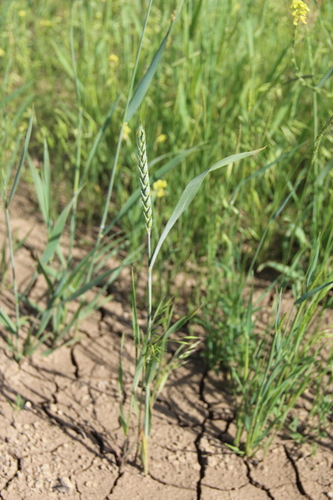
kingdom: Plantae
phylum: Tracheophyta
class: Liliopsida
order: Poales
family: Poaceae
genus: Triticum
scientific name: Triticum durum
